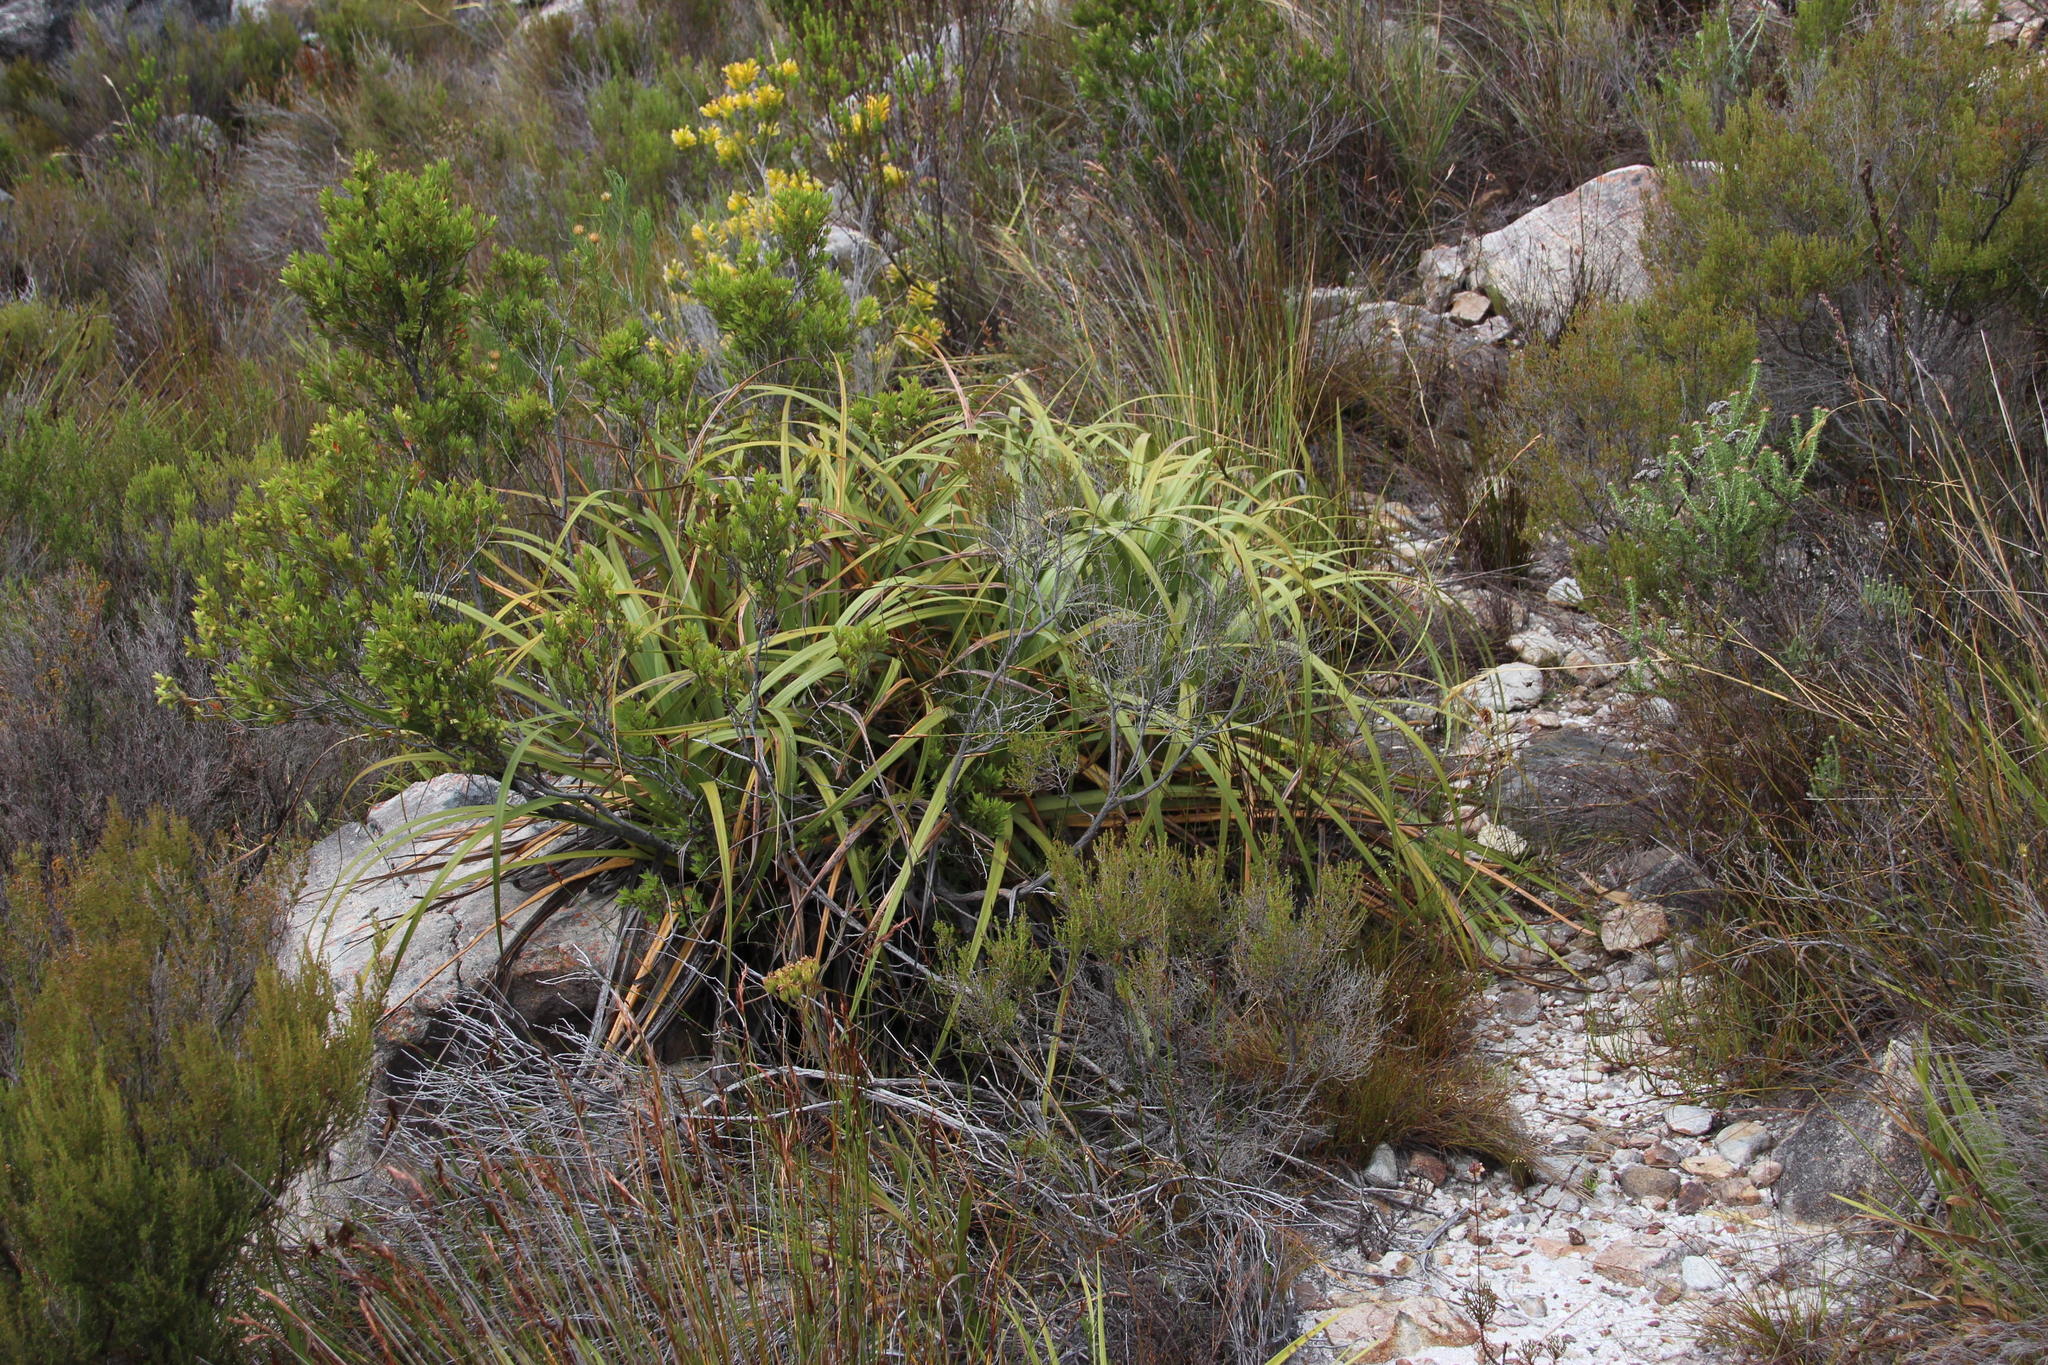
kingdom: Plantae
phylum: Tracheophyta
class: Liliopsida
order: Poales
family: Cyperaceae
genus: Tetraria
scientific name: Tetraria thermalis
